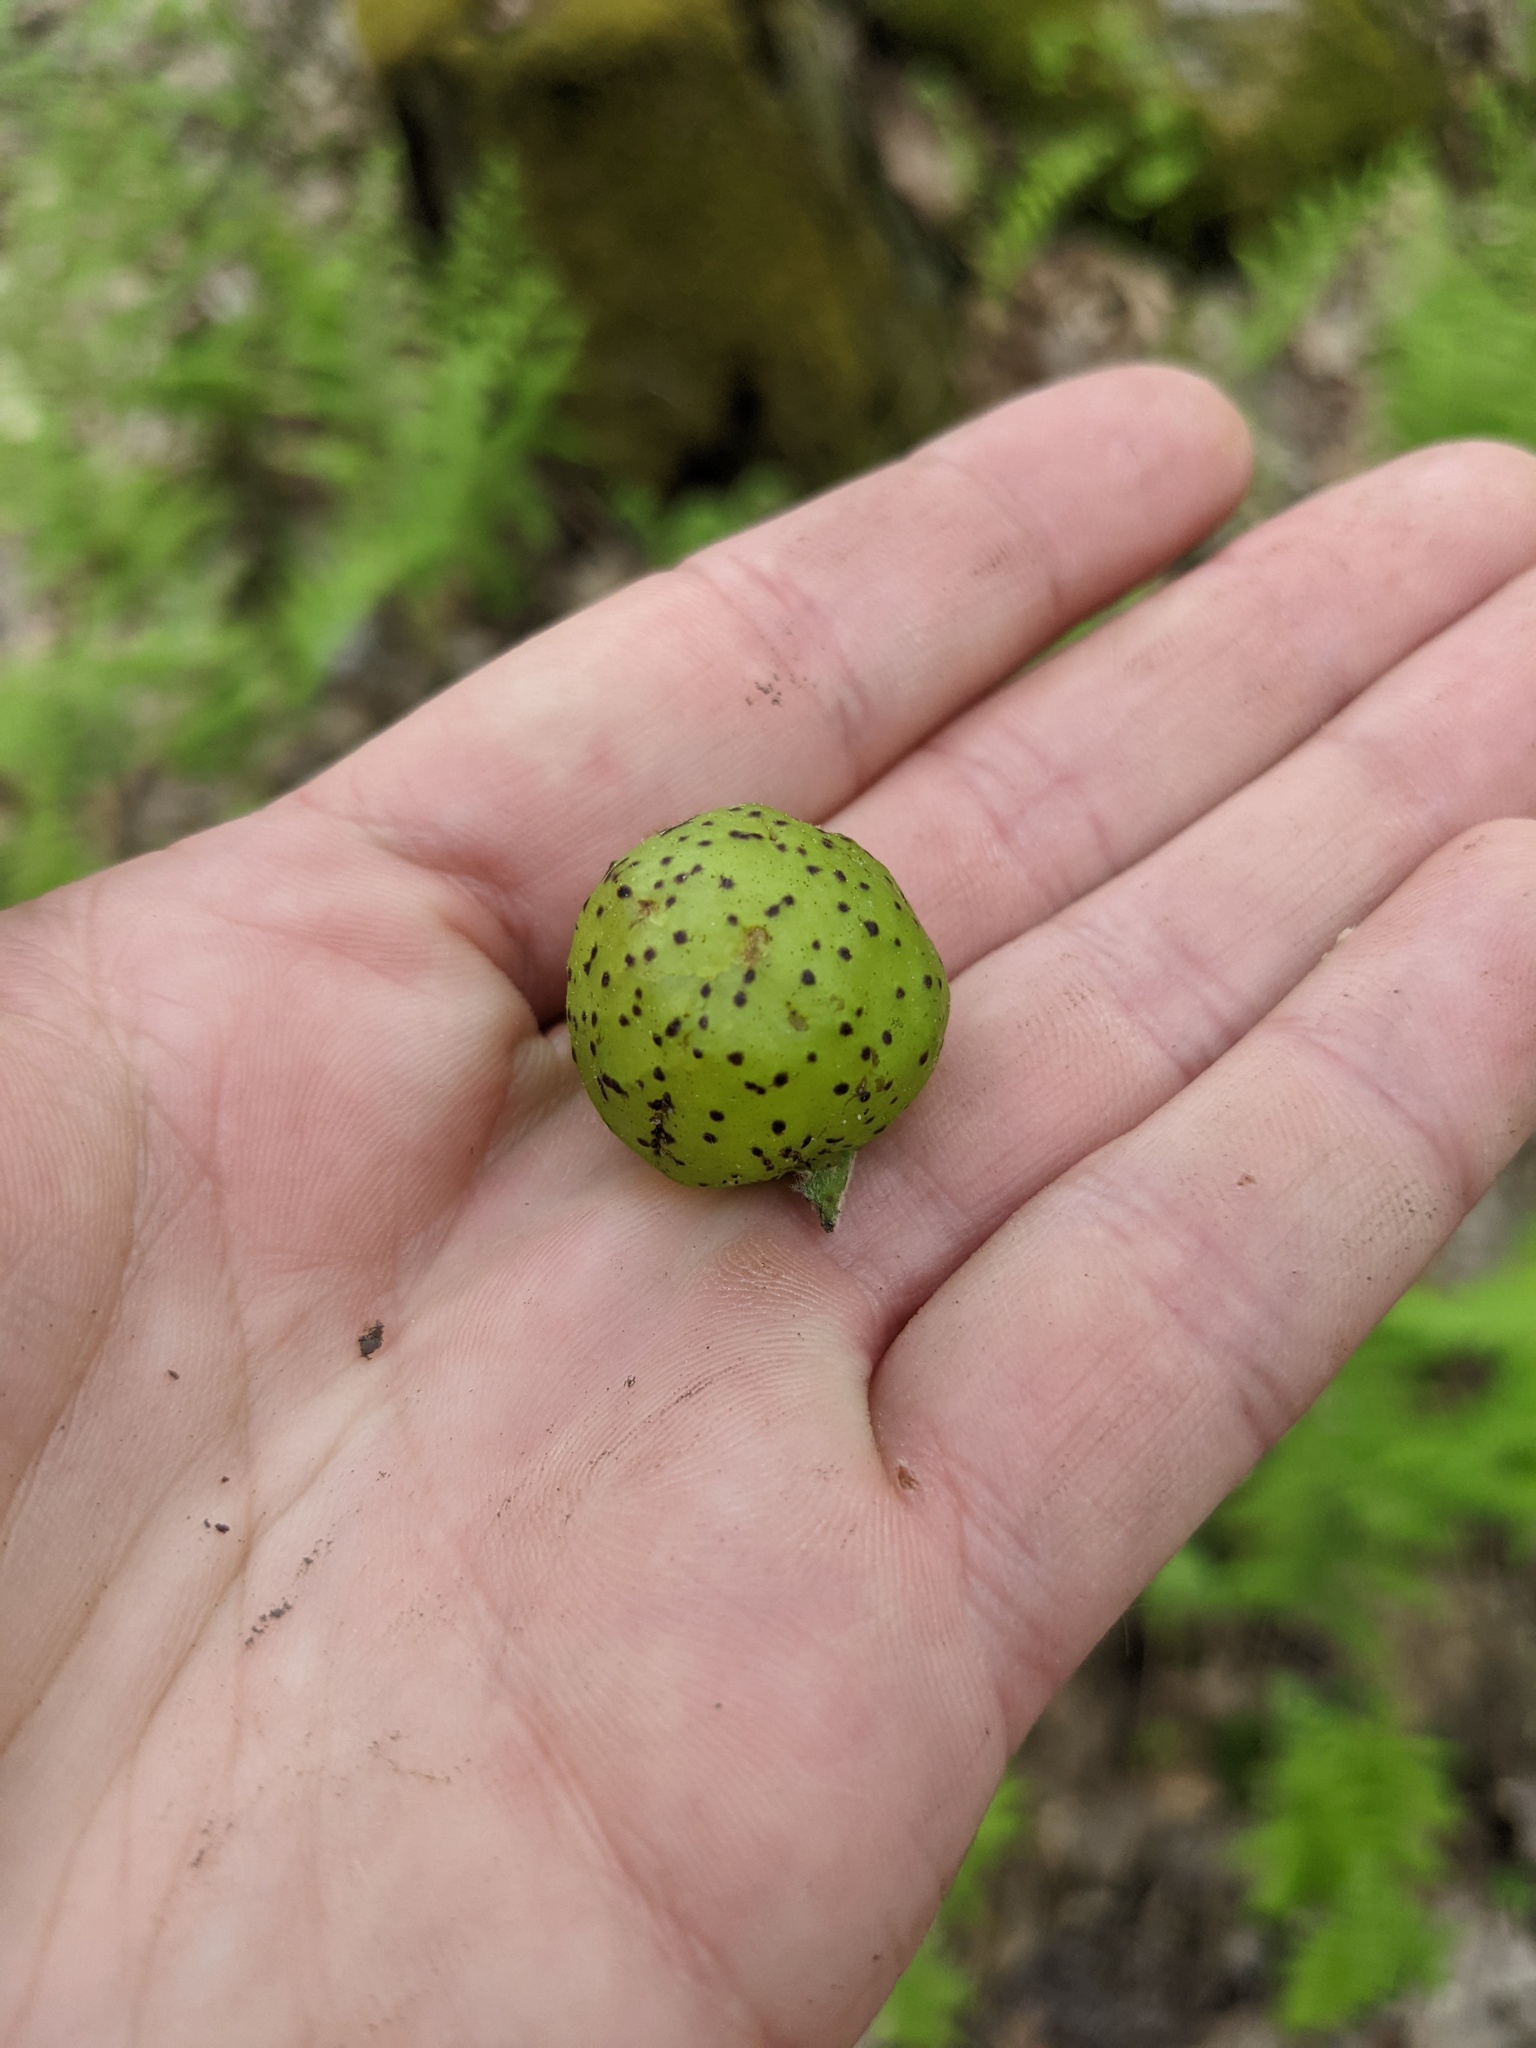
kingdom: Animalia
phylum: Arthropoda
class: Insecta
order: Hymenoptera
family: Cynipidae
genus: Amphibolips
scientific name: Amphibolips
